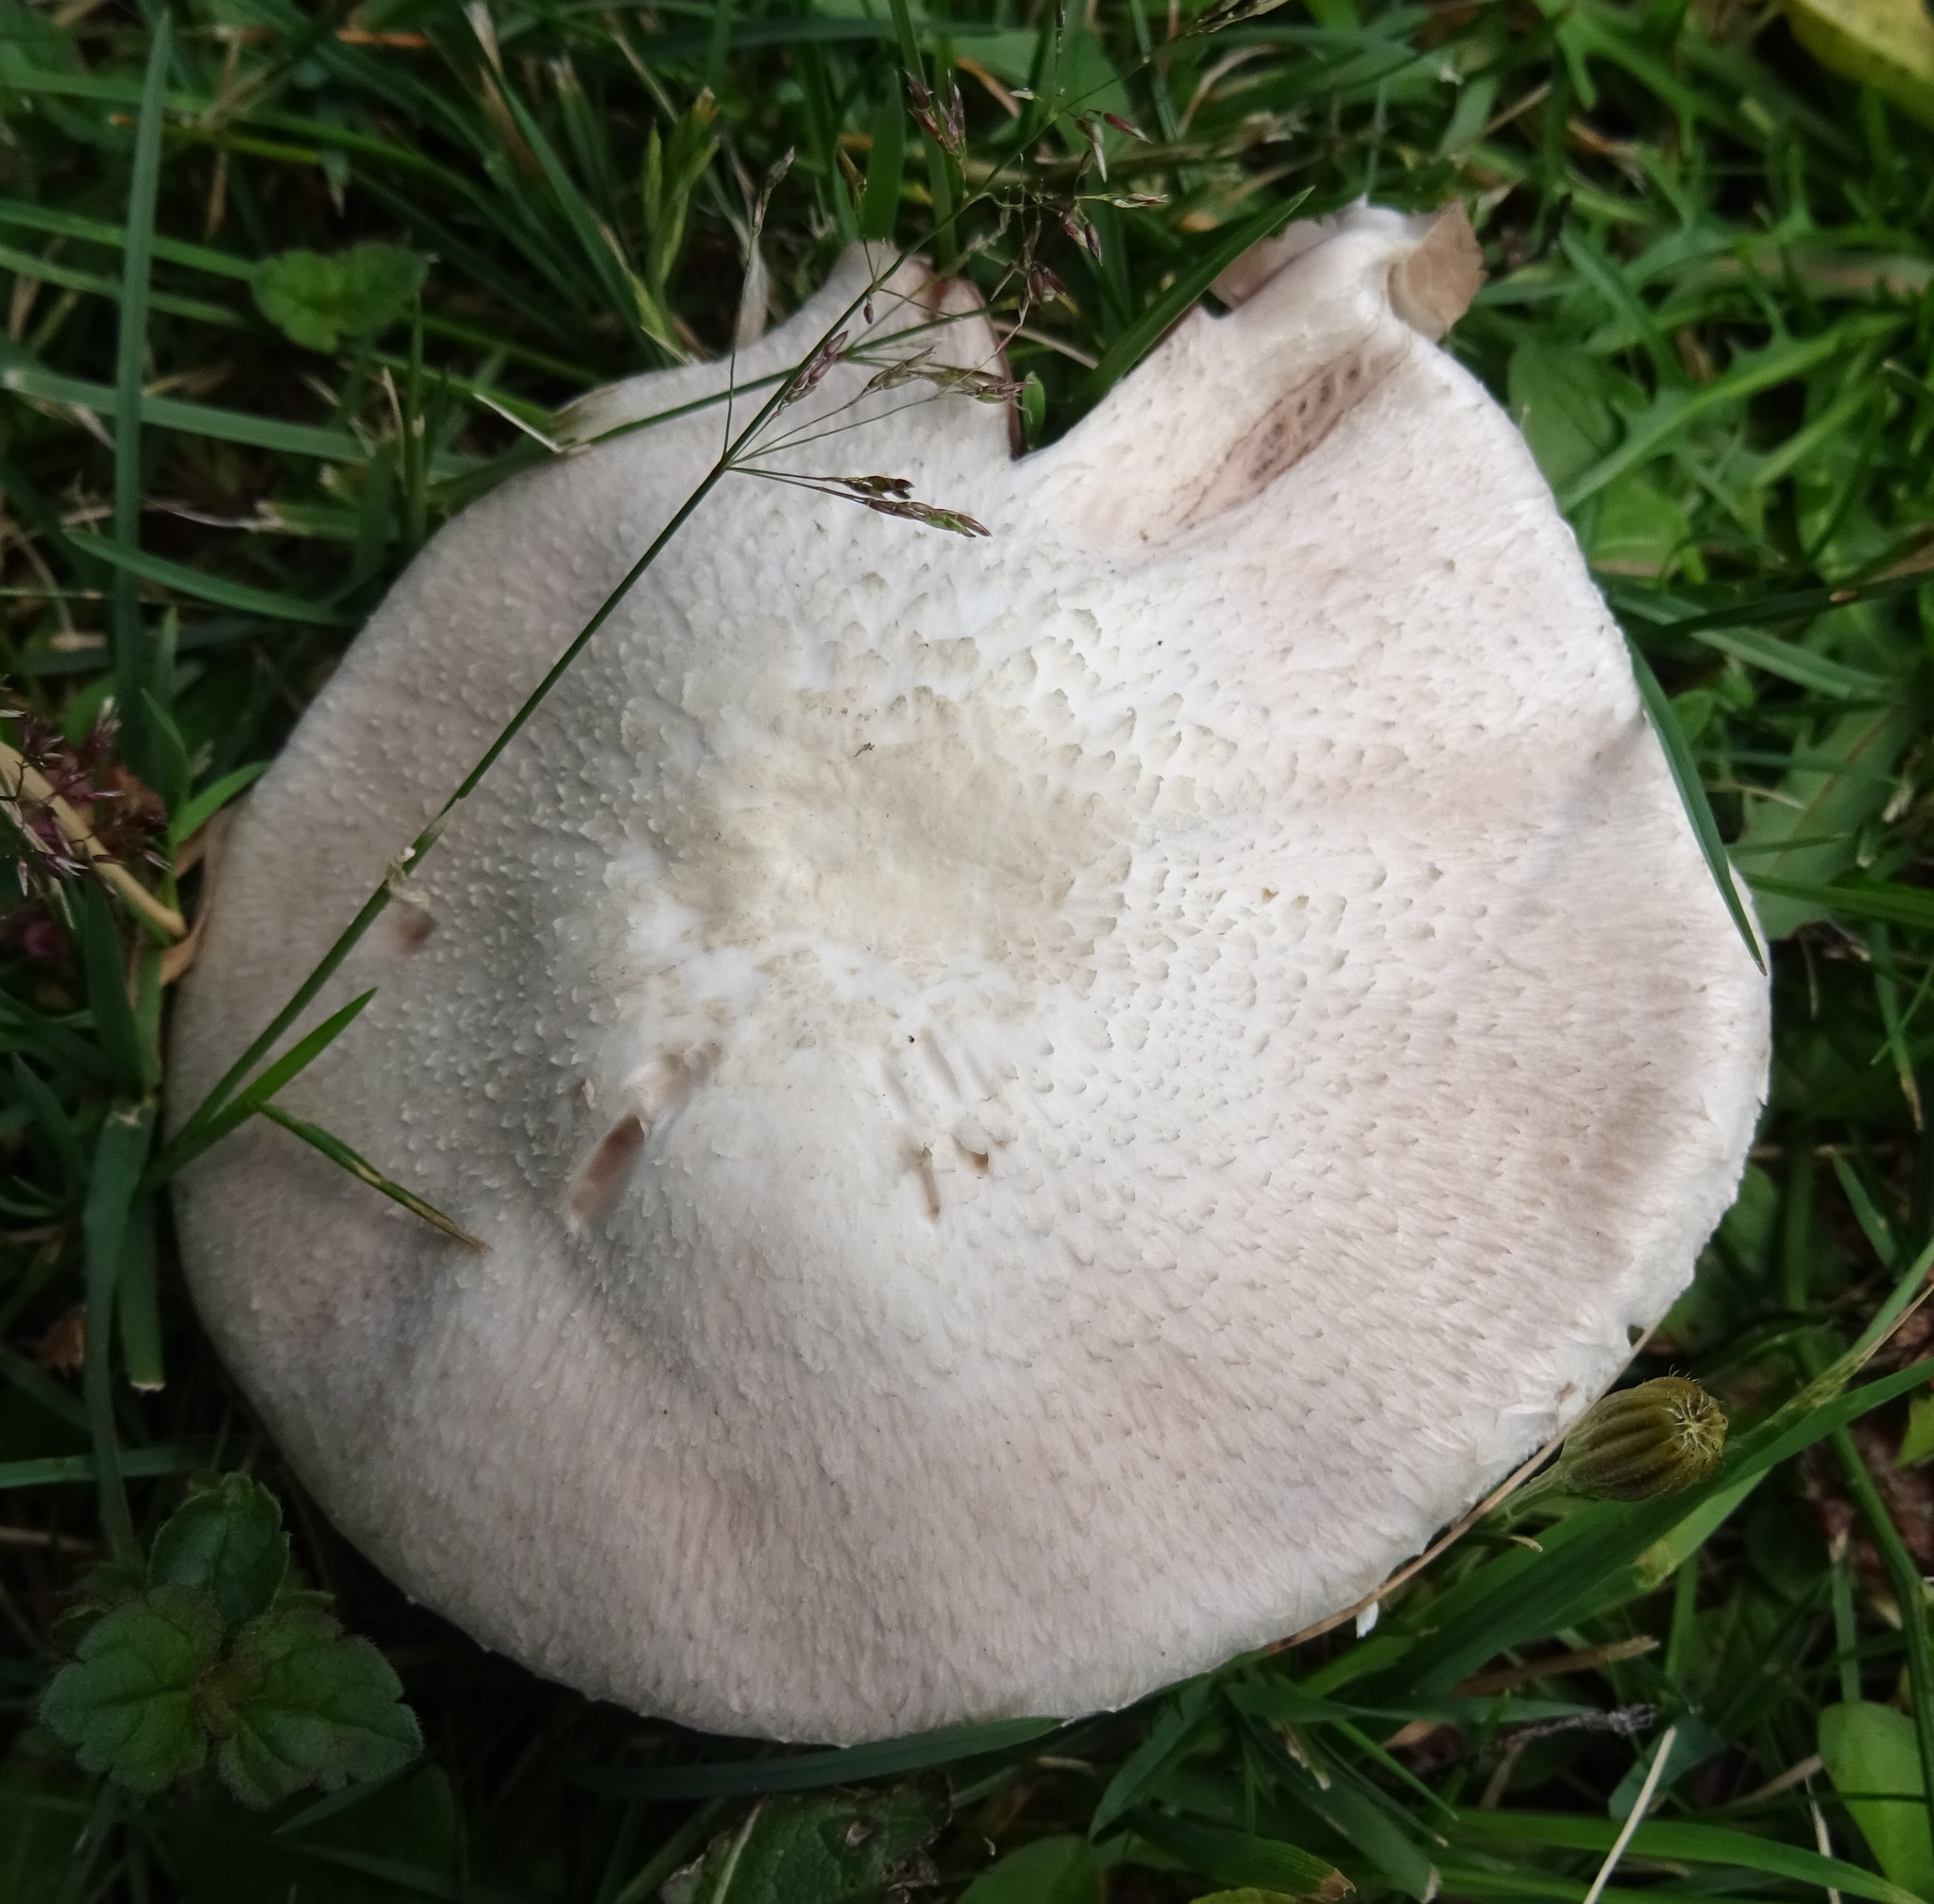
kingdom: Fungi
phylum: Basidiomycota
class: Agaricomycetes
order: Agaricales
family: Agaricaceae
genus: Agaricus
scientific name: Agaricus campestris
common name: Field mushroom
